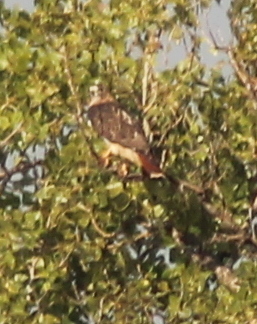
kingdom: Animalia
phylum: Chordata
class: Aves
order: Accipitriformes
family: Accipitridae
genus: Buteo
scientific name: Buteo jamaicensis
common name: Red-tailed hawk
